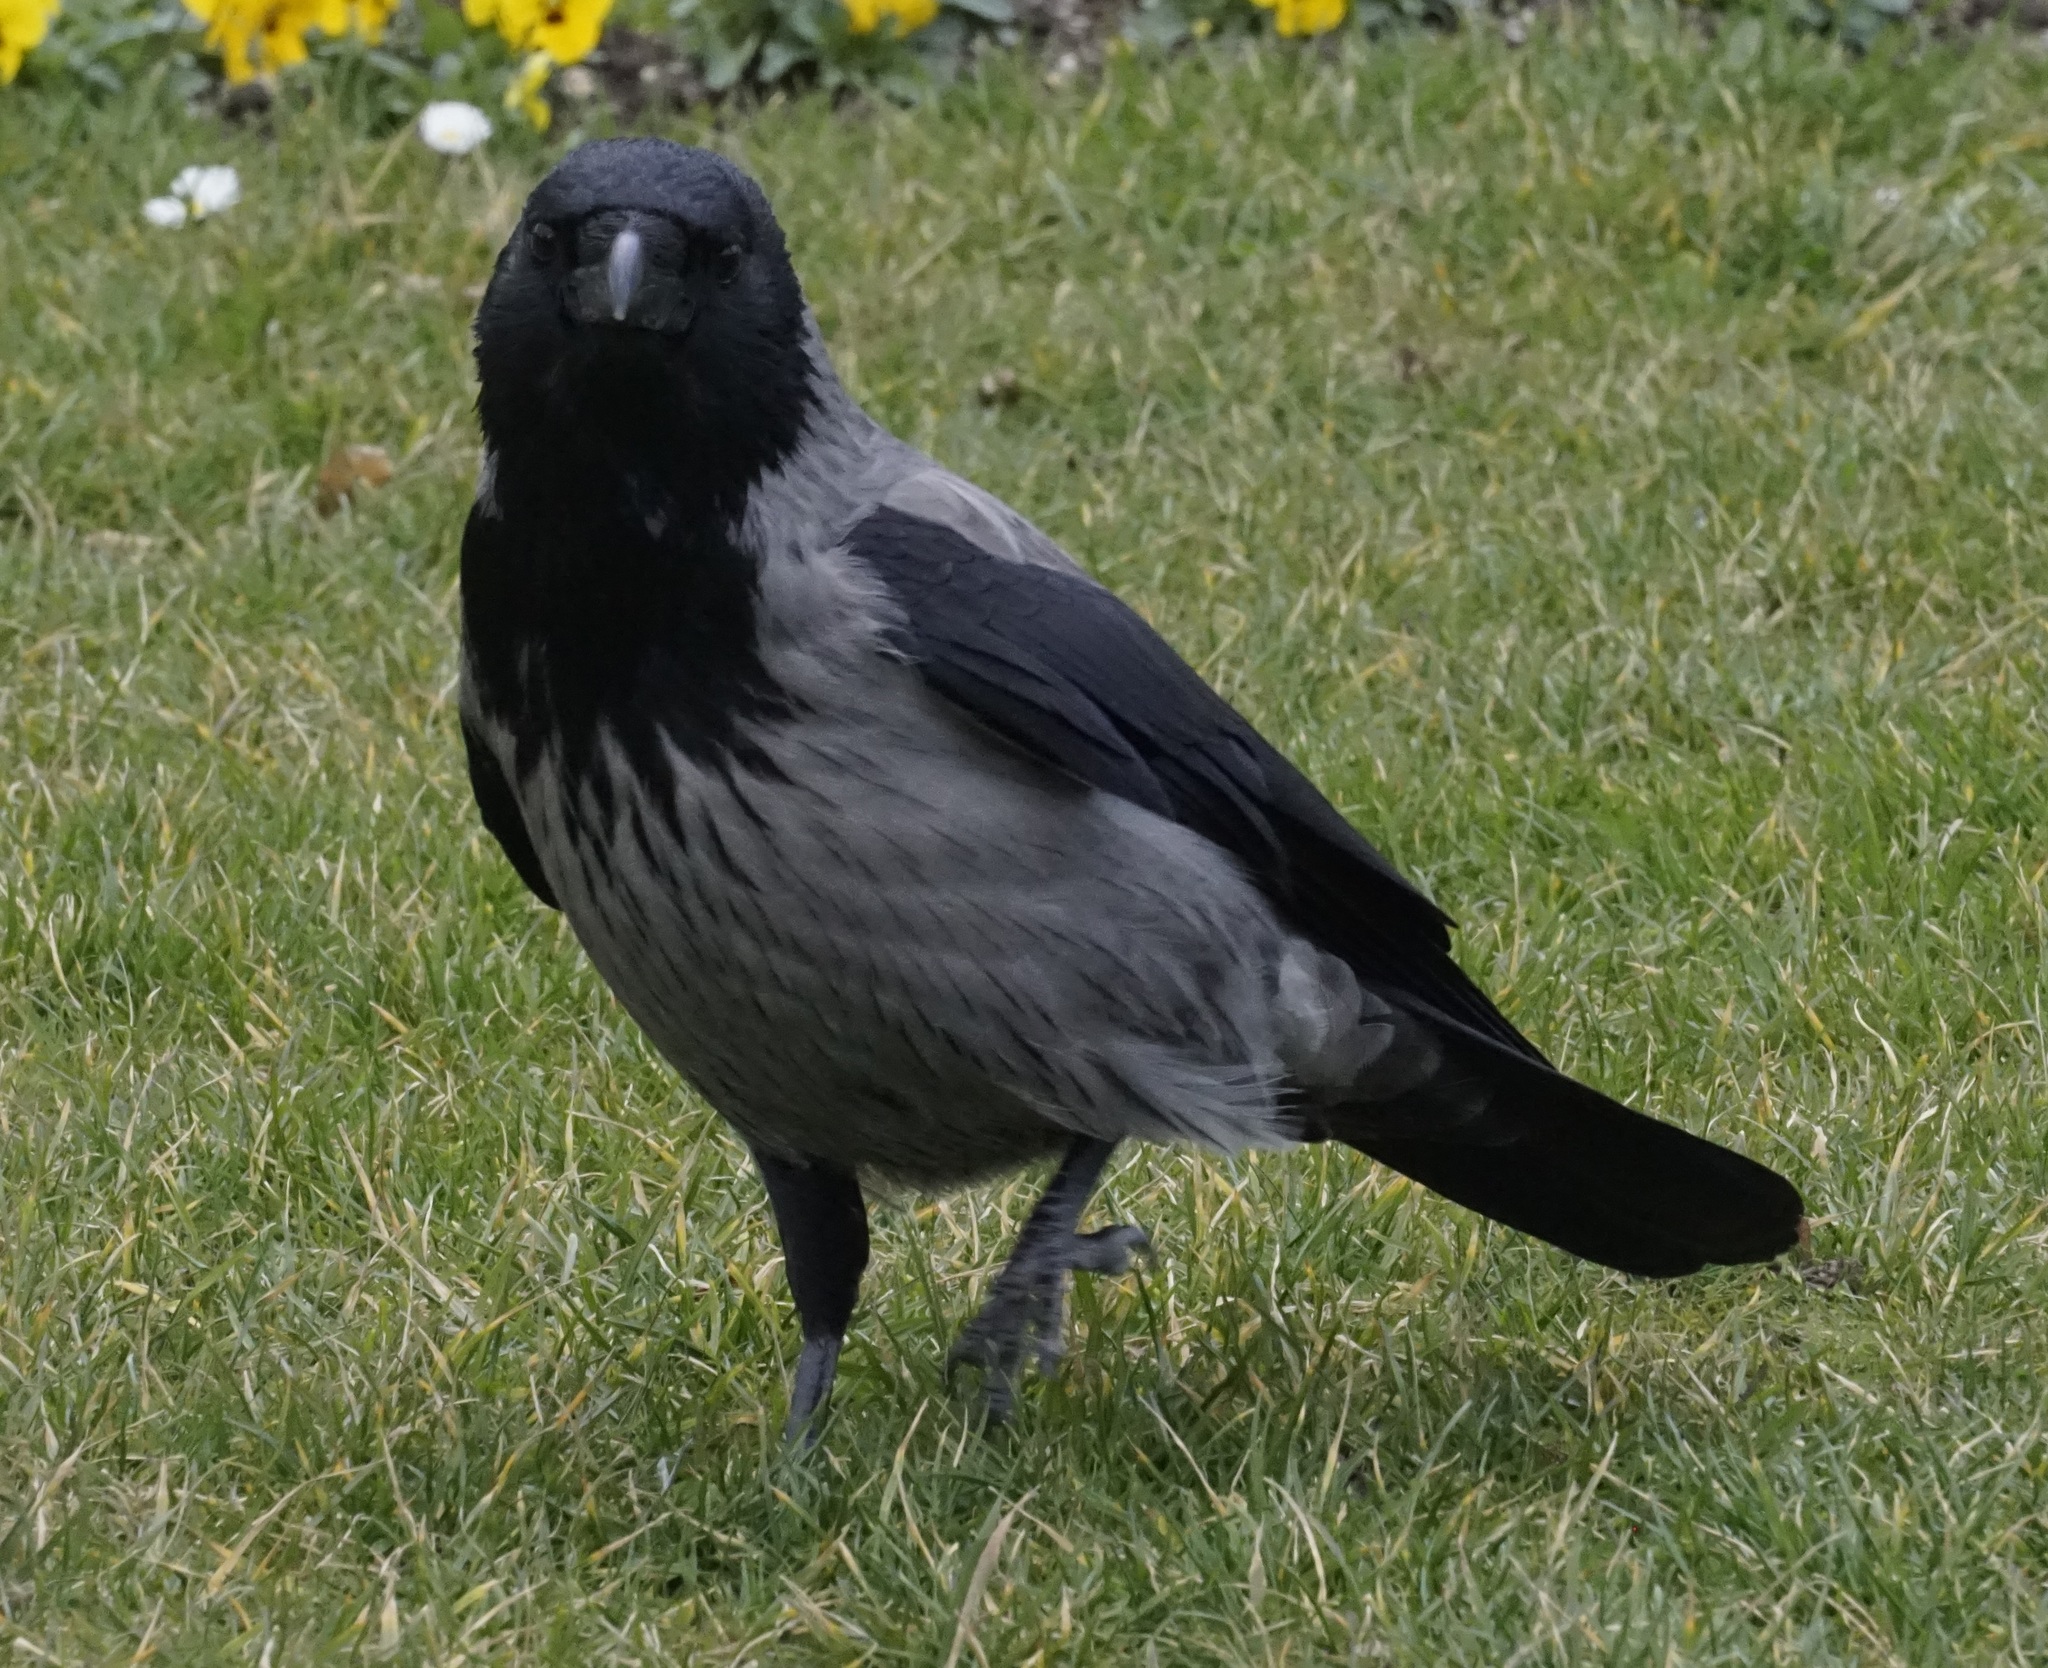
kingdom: Animalia
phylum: Chordata
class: Aves
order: Passeriformes
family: Corvidae
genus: Corvus
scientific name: Corvus cornix
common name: Hooded crow
